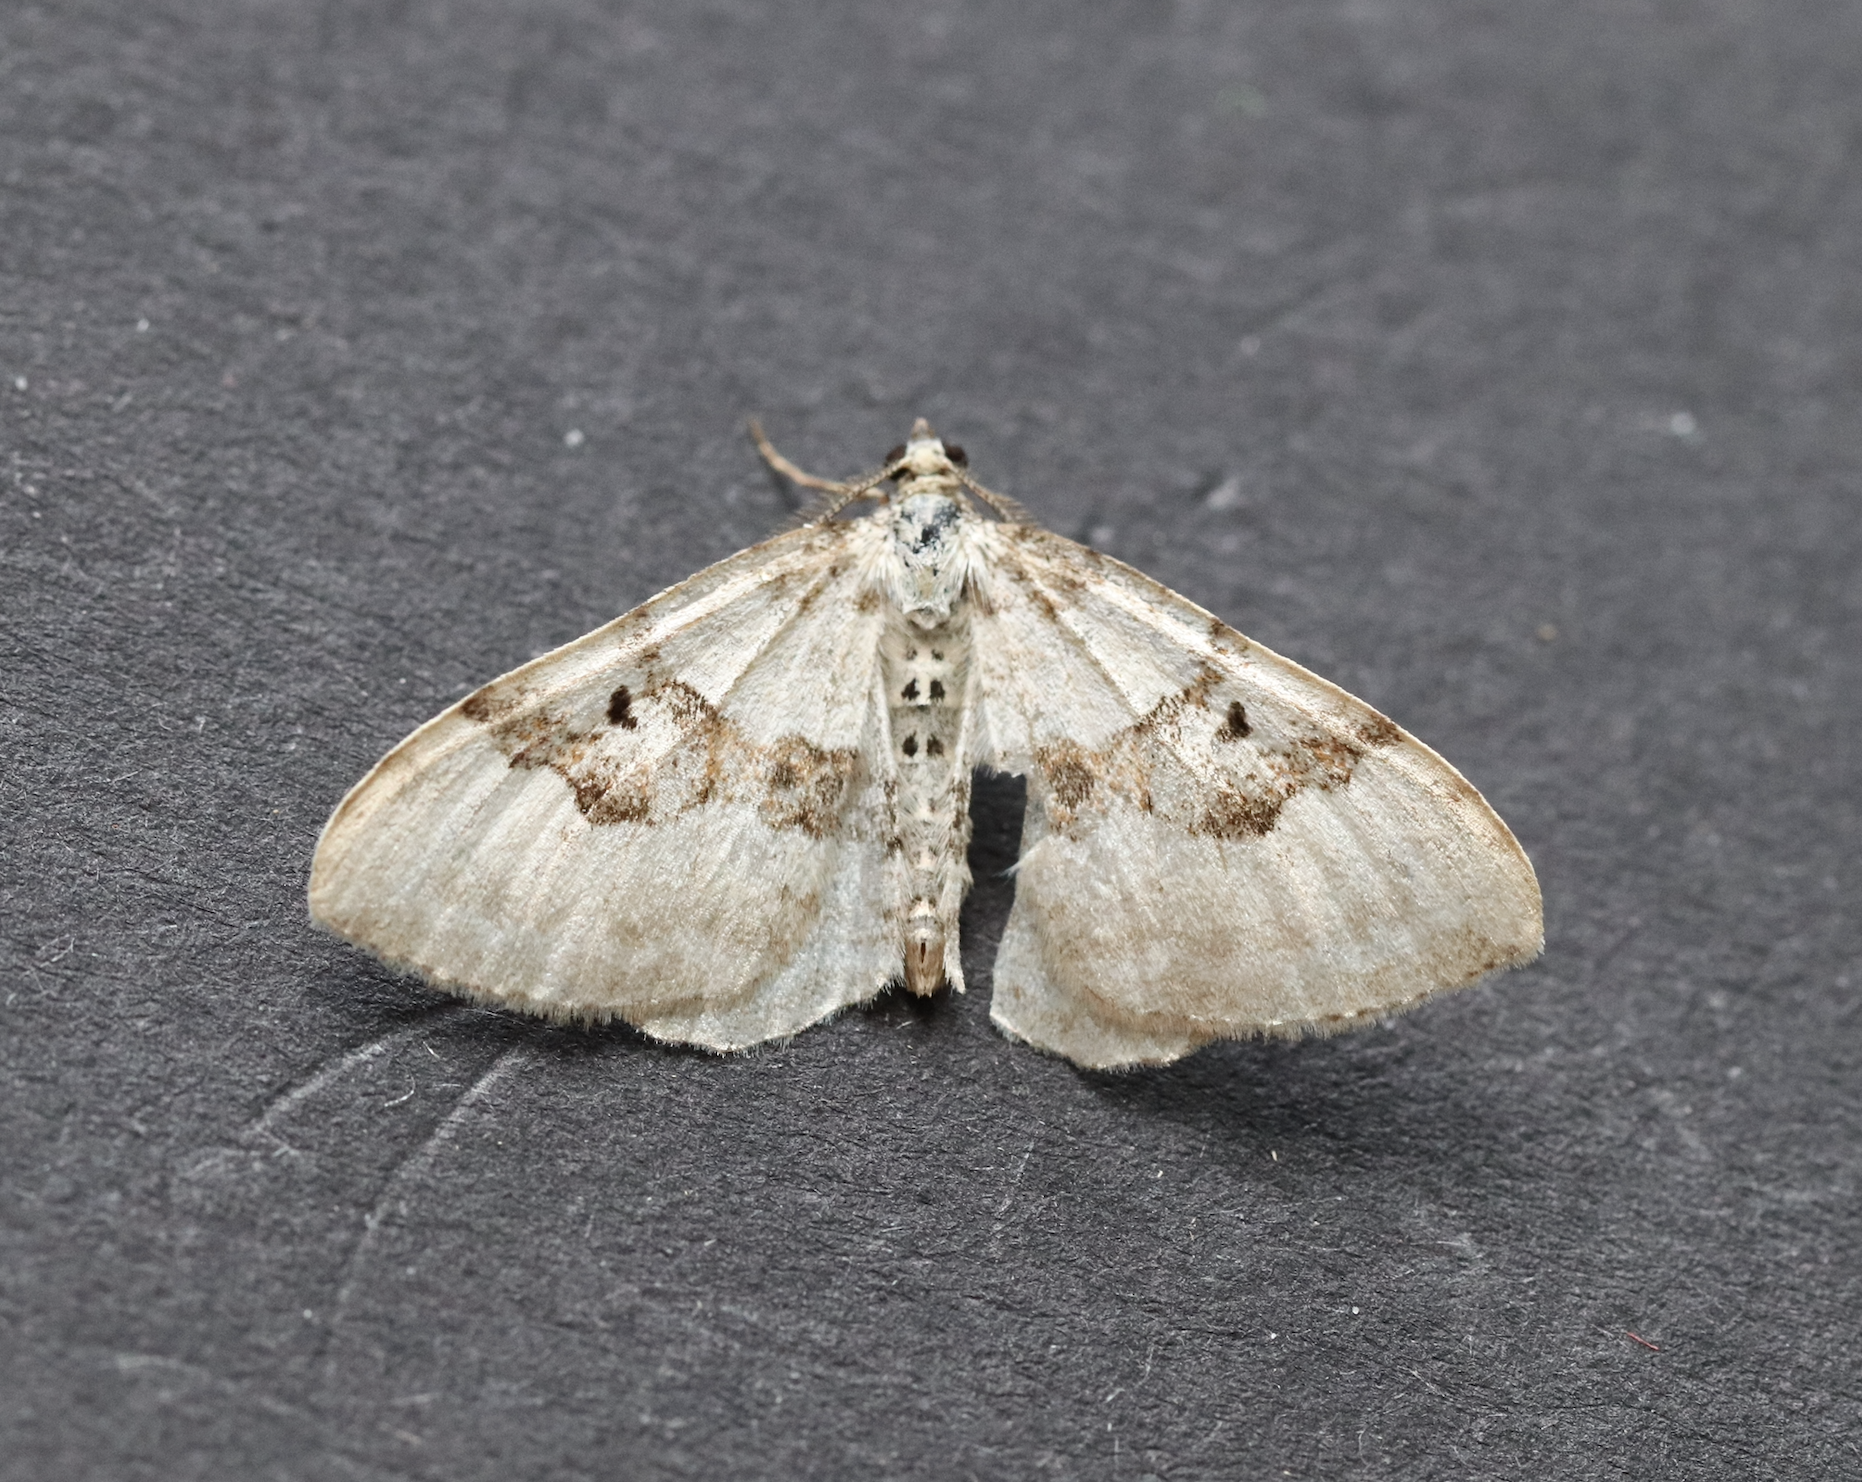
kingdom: Animalia
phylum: Arthropoda
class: Insecta
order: Lepidoptera
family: Geometridae
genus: Xanthorhoe
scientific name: Xanthorhoe montanata
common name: Silver-ground carpet
